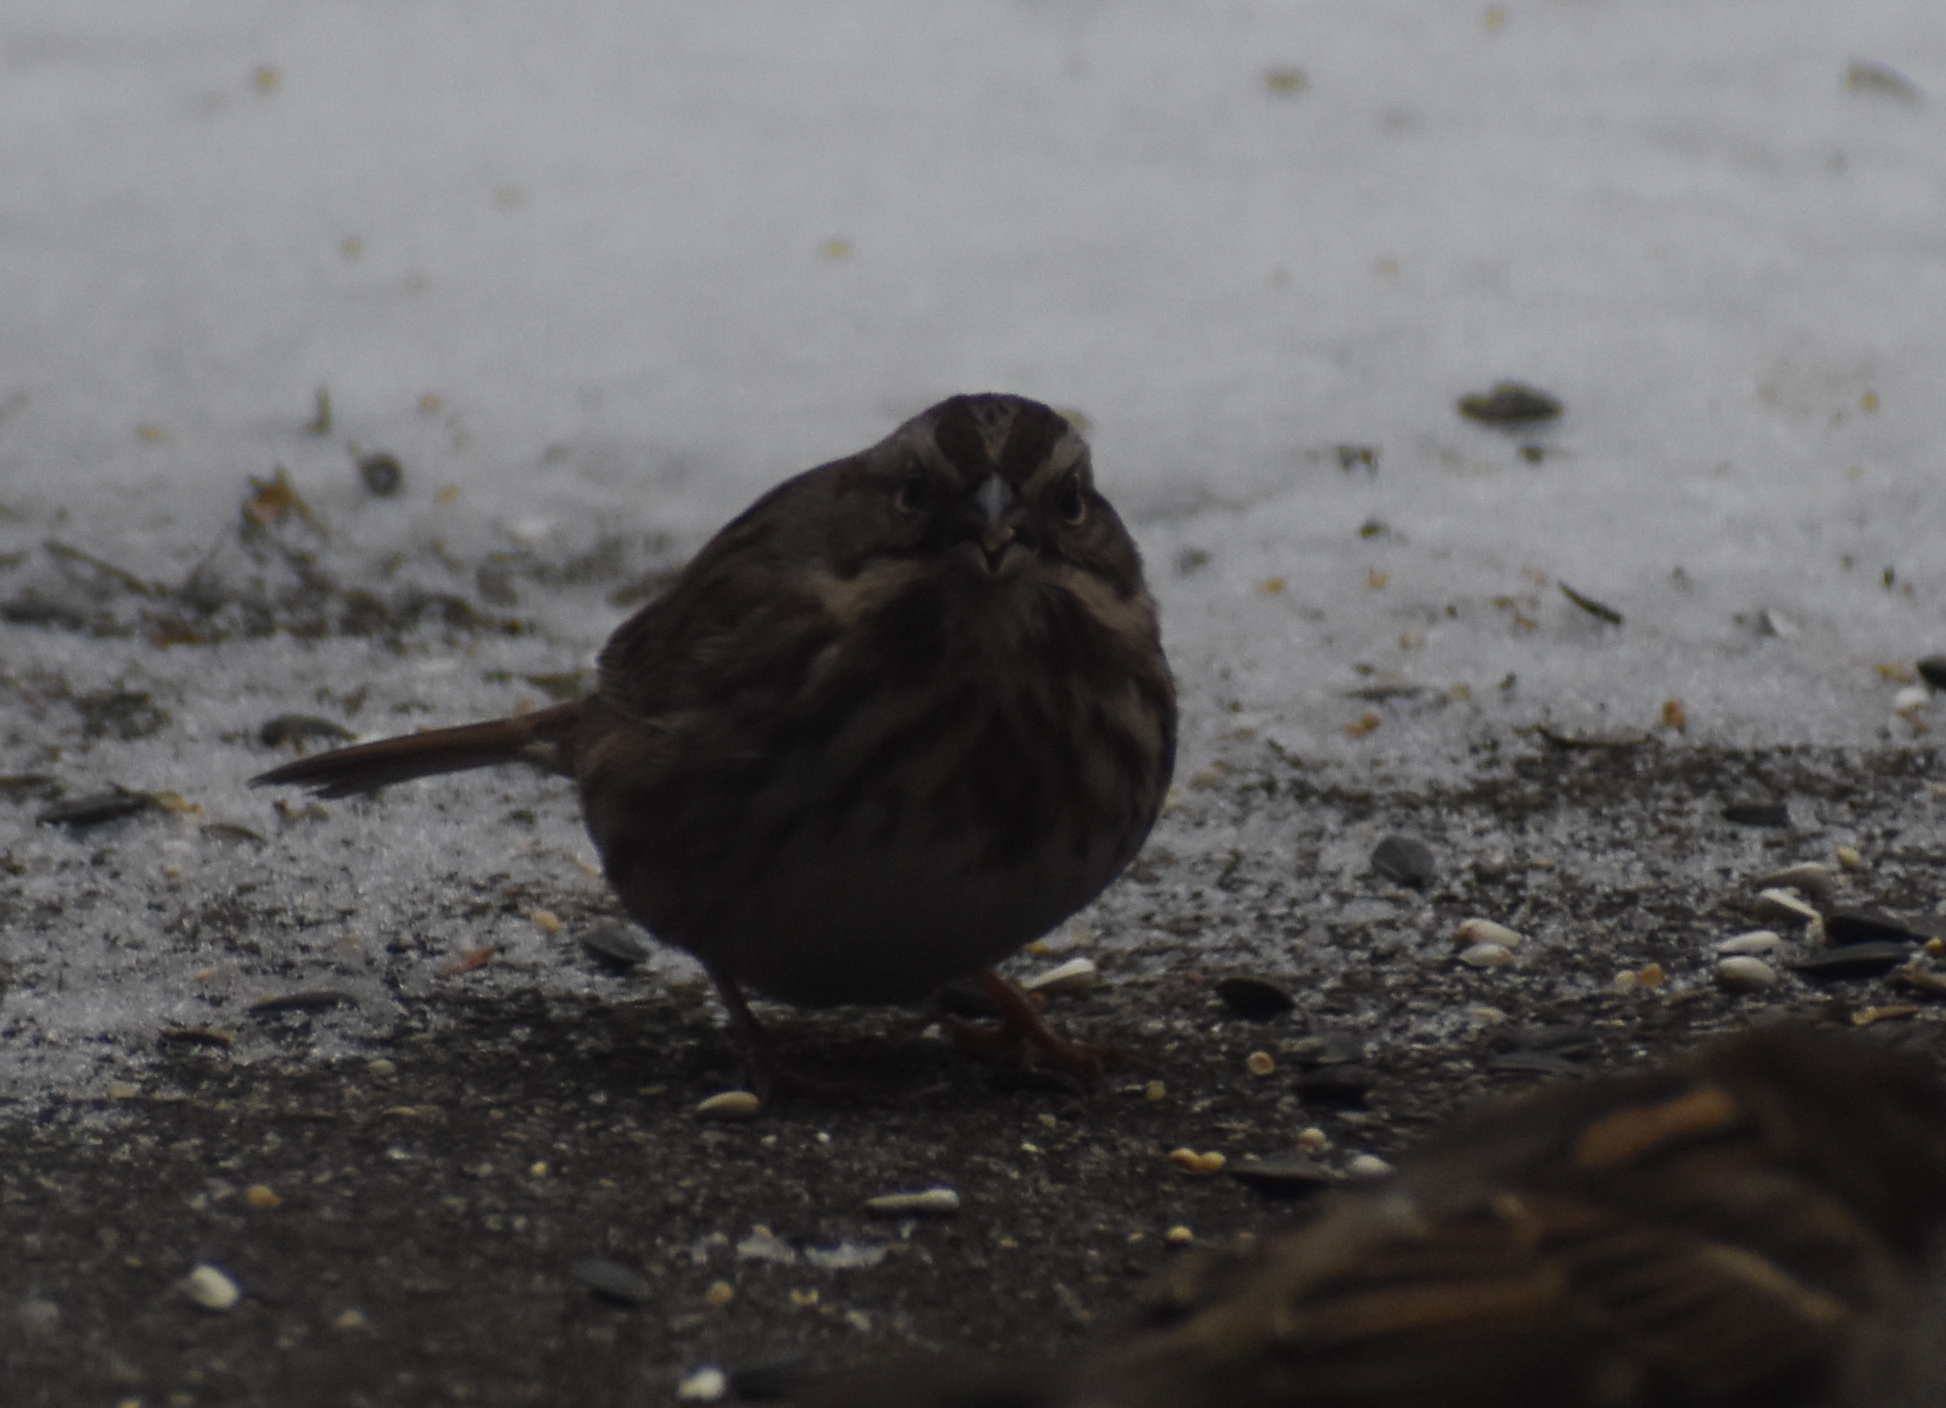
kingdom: Animalia
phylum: Chordata
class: Aves
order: Passeriformes
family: Passerellidae
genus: Melospiza
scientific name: Melospiza melodia
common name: Song sparrow
